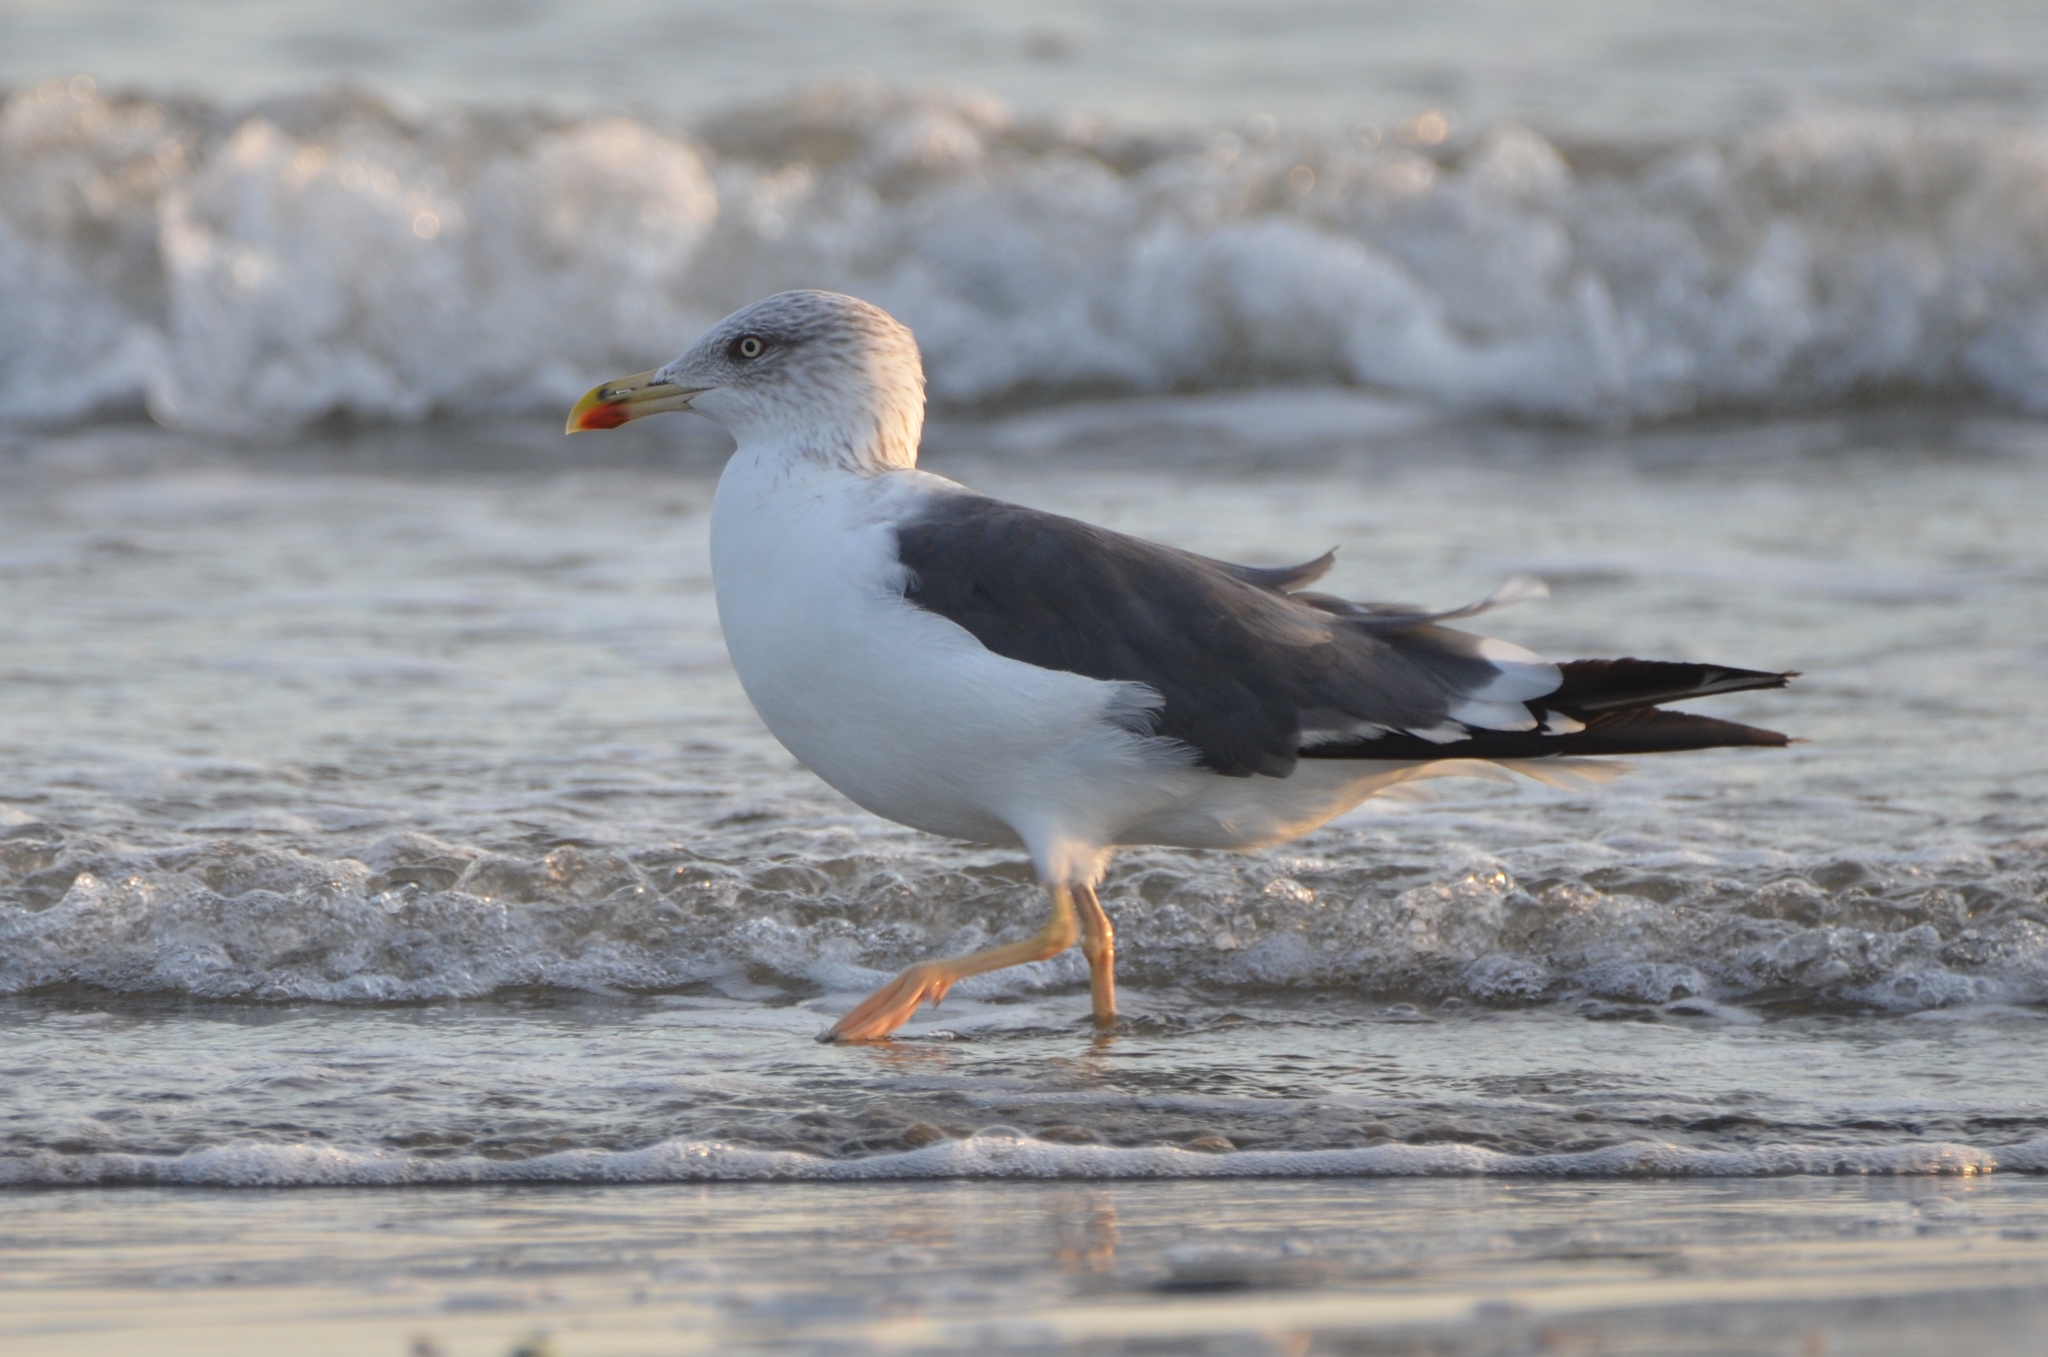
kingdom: Animalia
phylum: Chordata
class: Aves
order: Charadriiformes
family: Laridae
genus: Larus
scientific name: Larus fuscus
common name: Lesser black-backed gull
